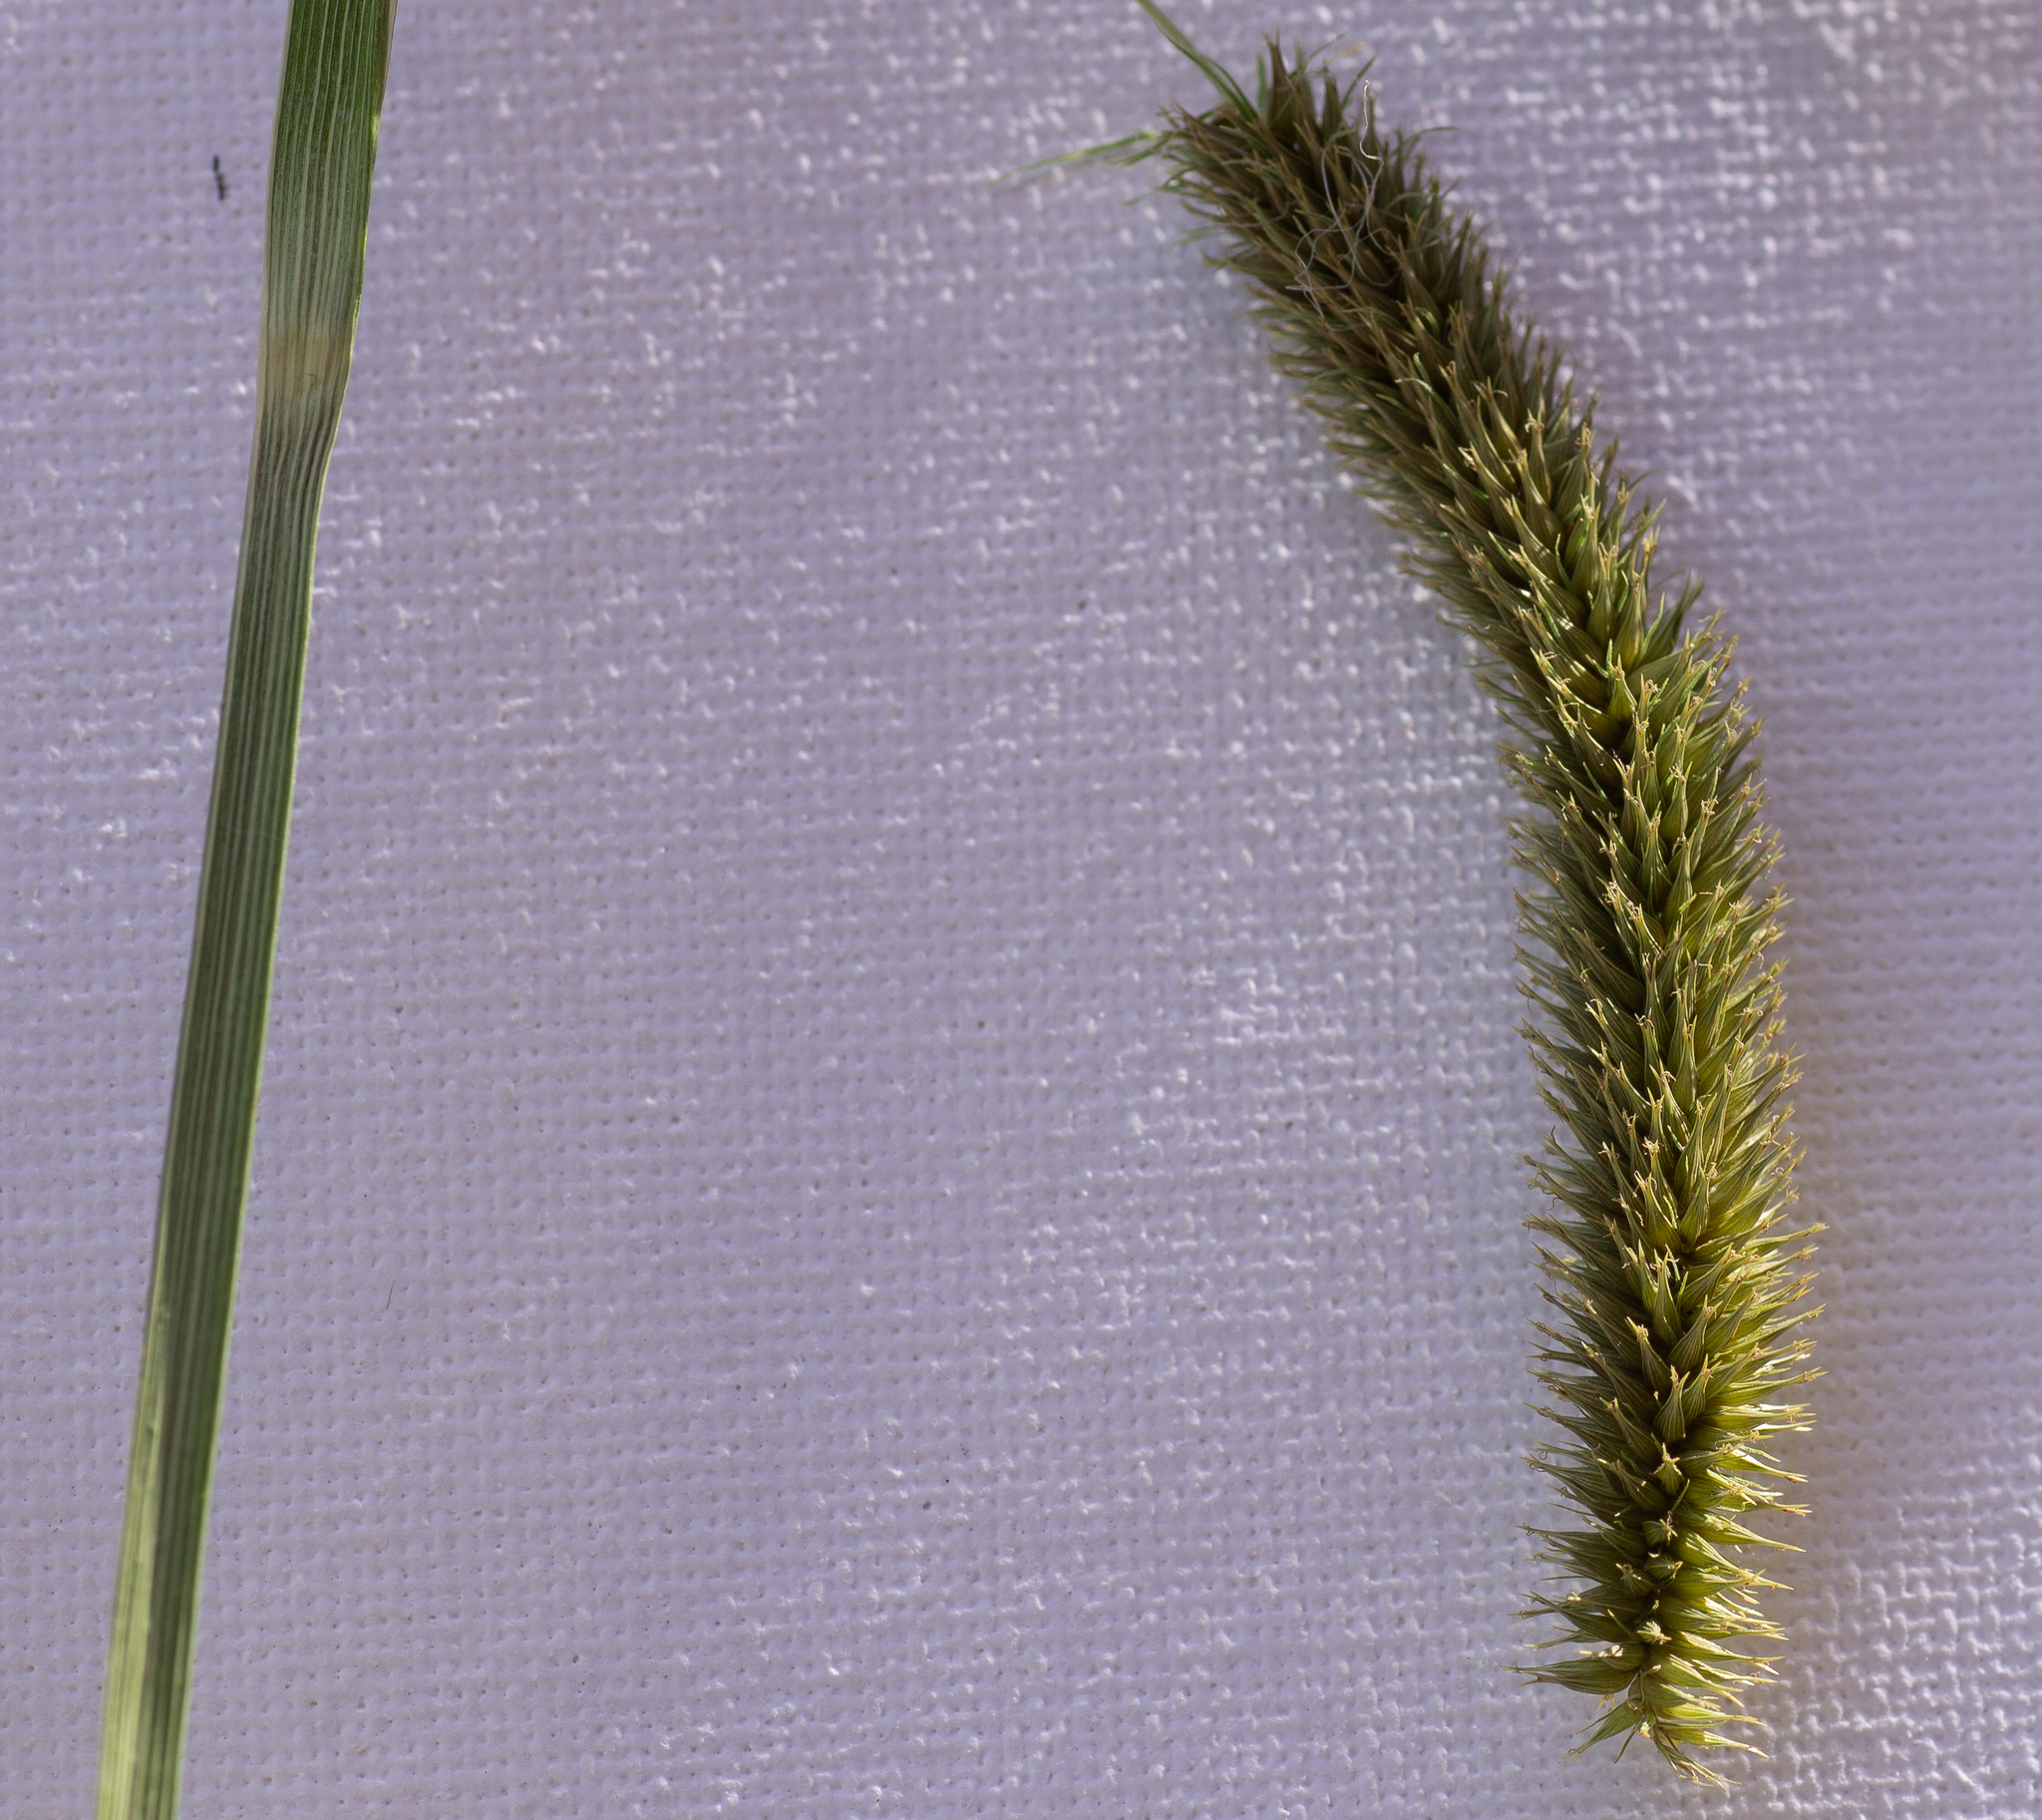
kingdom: Plantae
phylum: Tracheophyta
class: Liliopsida
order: Poales
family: Cyperaceae
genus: Carex
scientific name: Carex pseudocyperus
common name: Cyperus sedge
